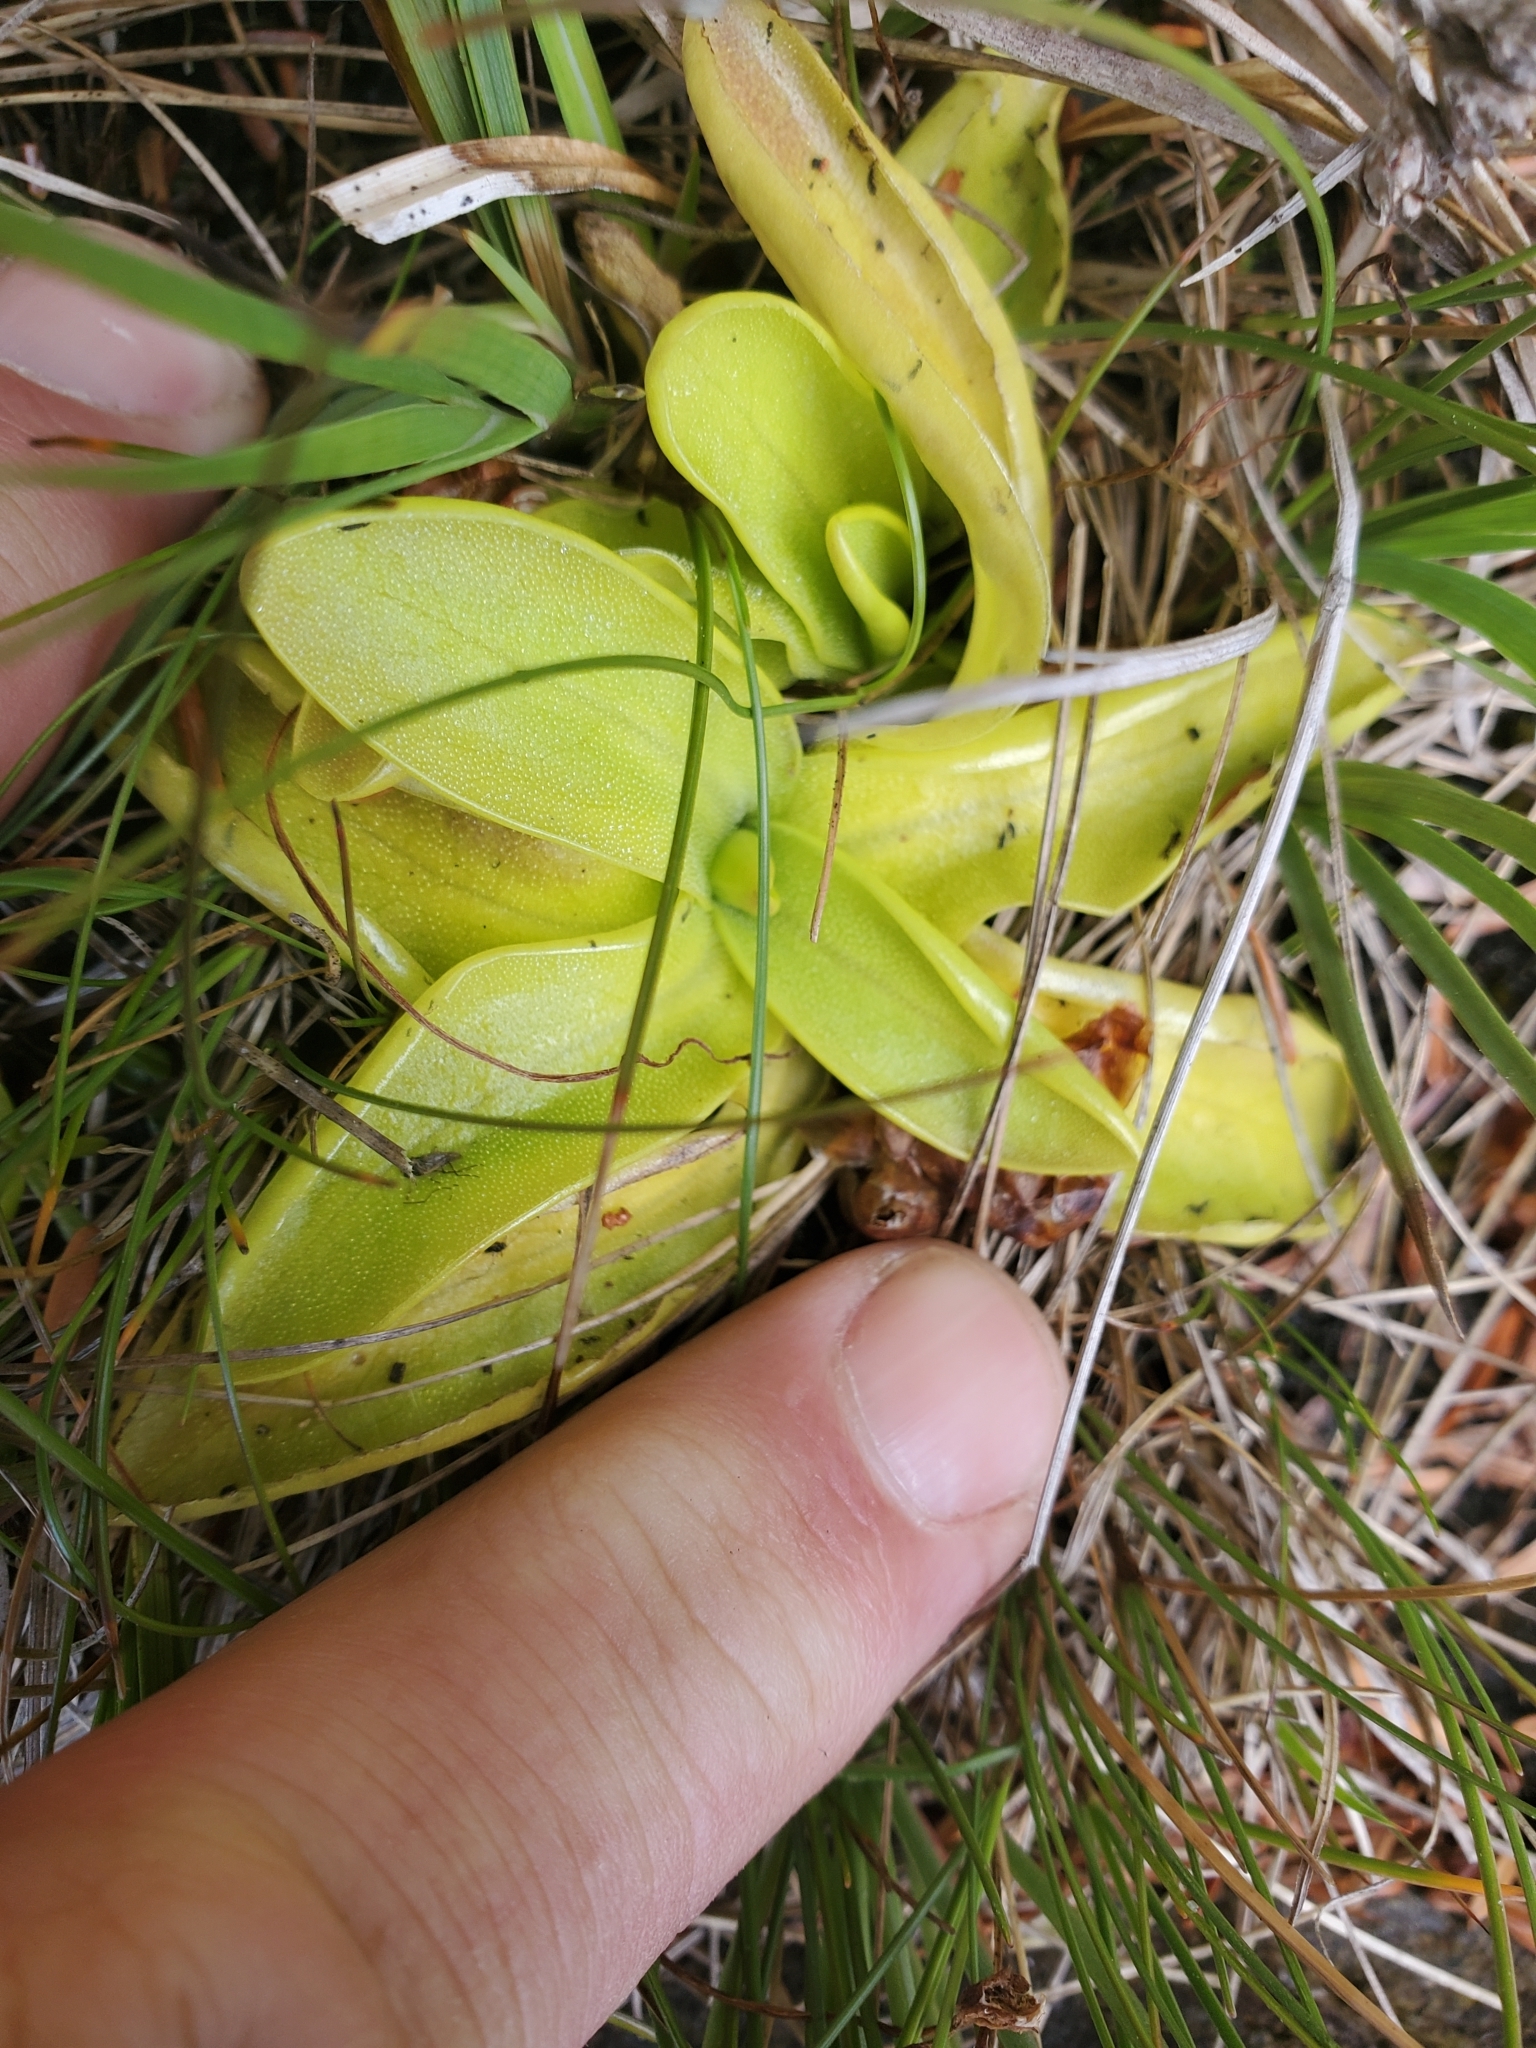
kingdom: Plantae
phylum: Tracheophyta
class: Magnoliopsida
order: Lamiales
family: Lentibulariaceae
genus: Pinguicula
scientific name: Pinguicula vulgaris
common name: Common butterwort
